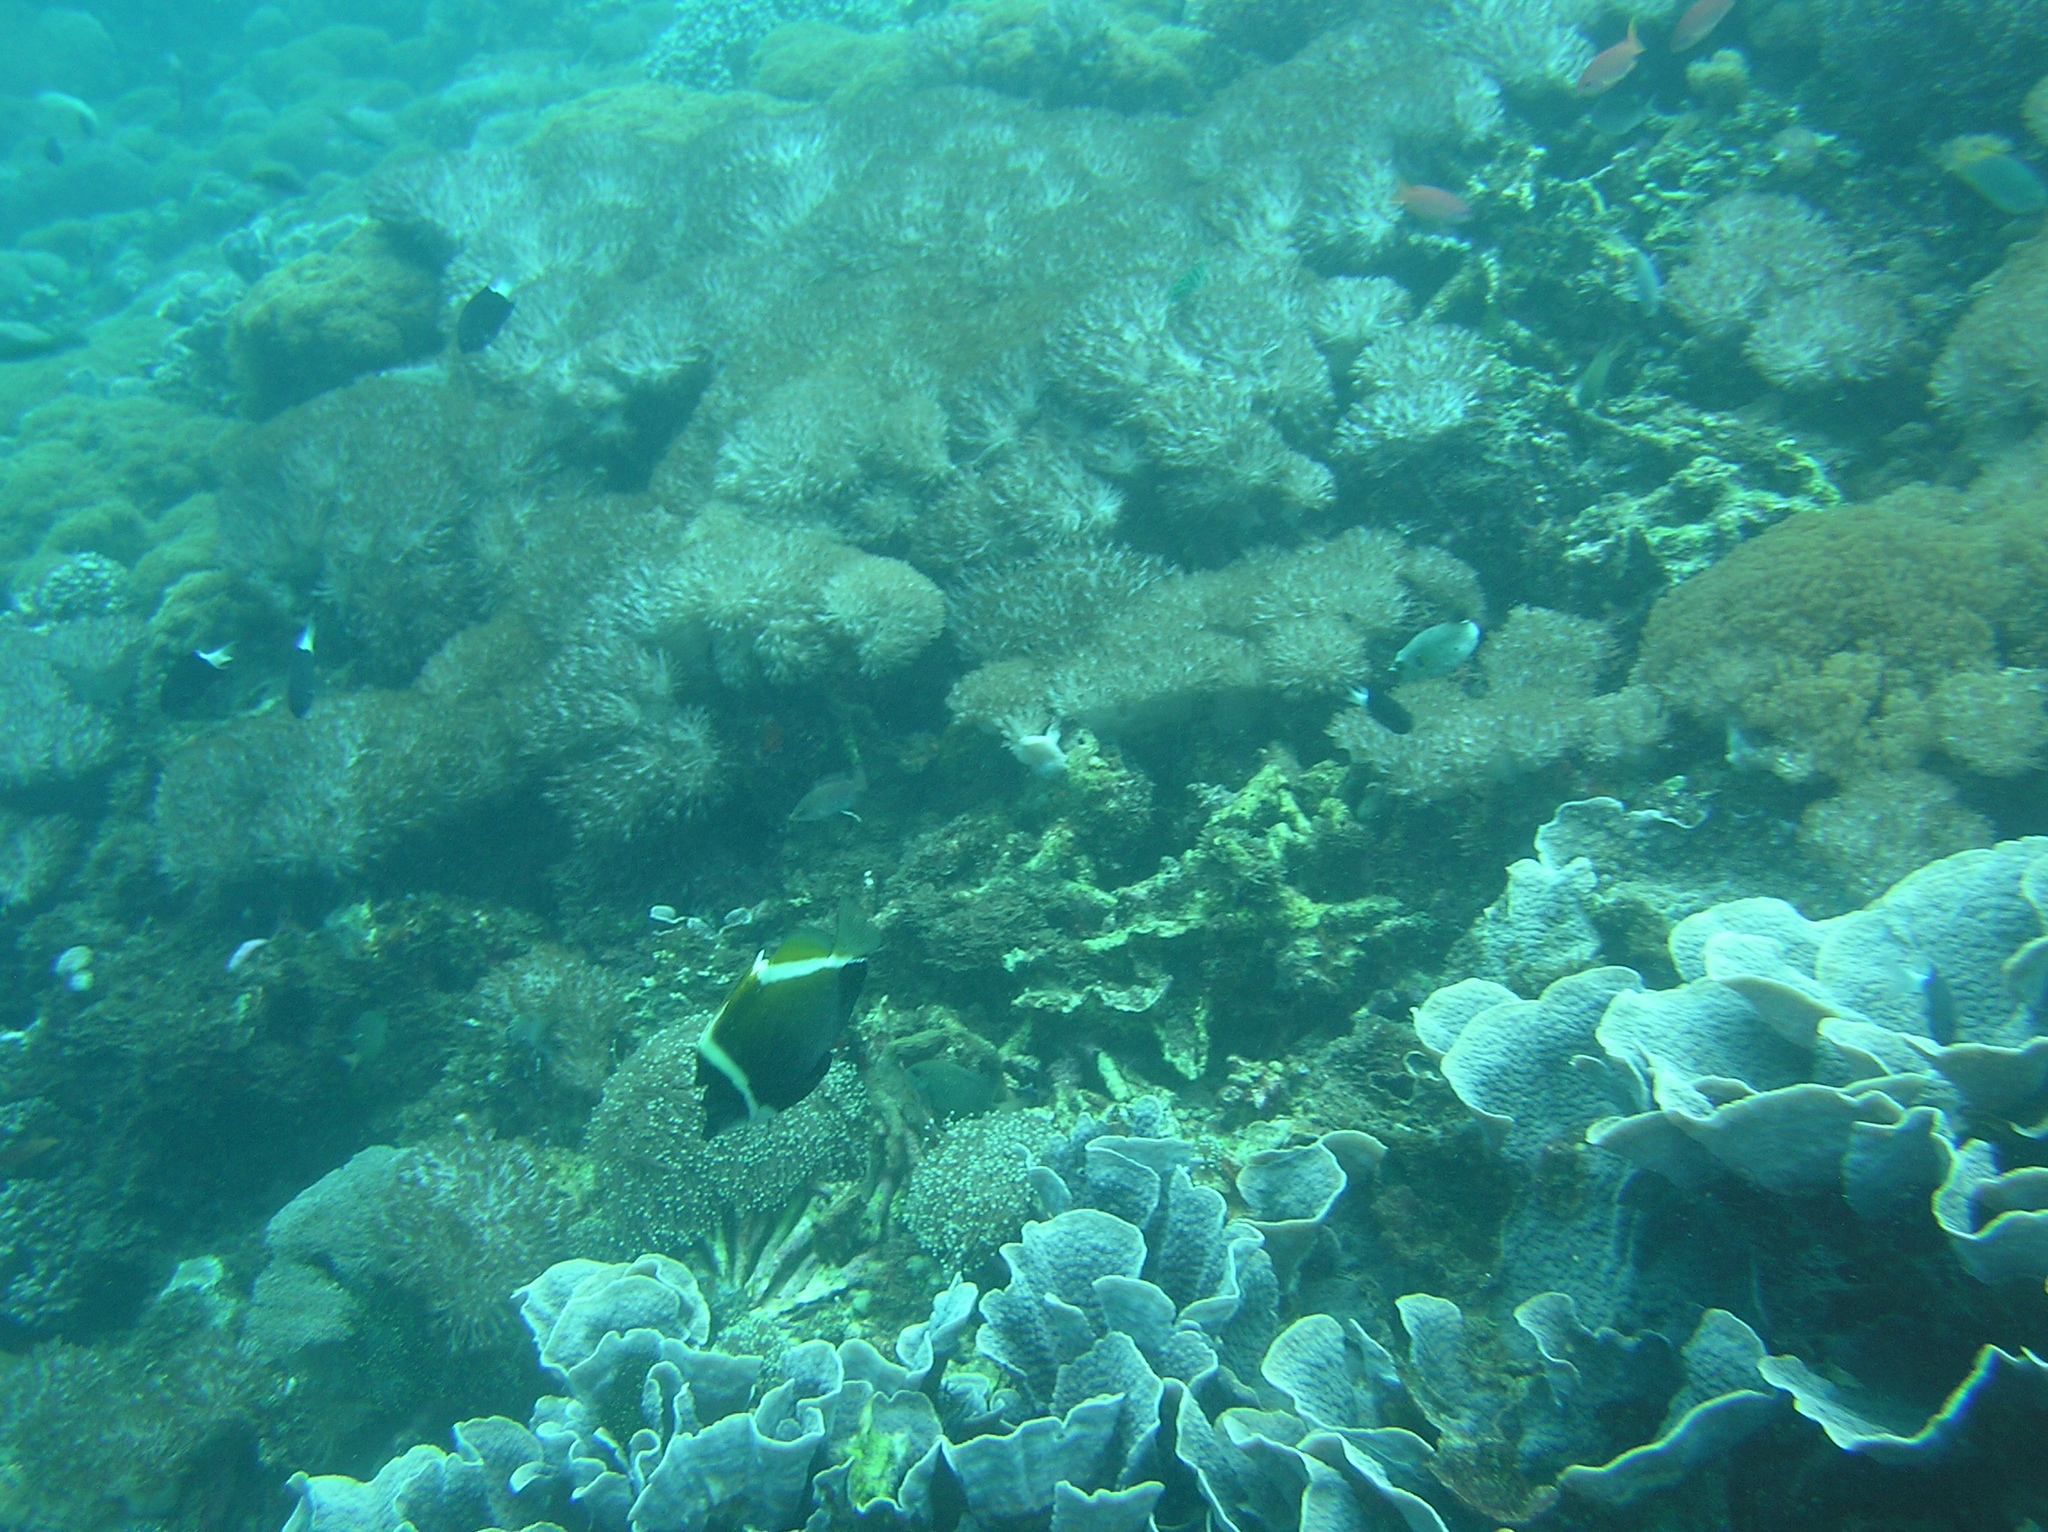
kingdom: Animalia
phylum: Chordata
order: Perciformes
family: Chaetodontidae
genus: Heniochus
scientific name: Heniochus varius
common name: Horned bannerfish
